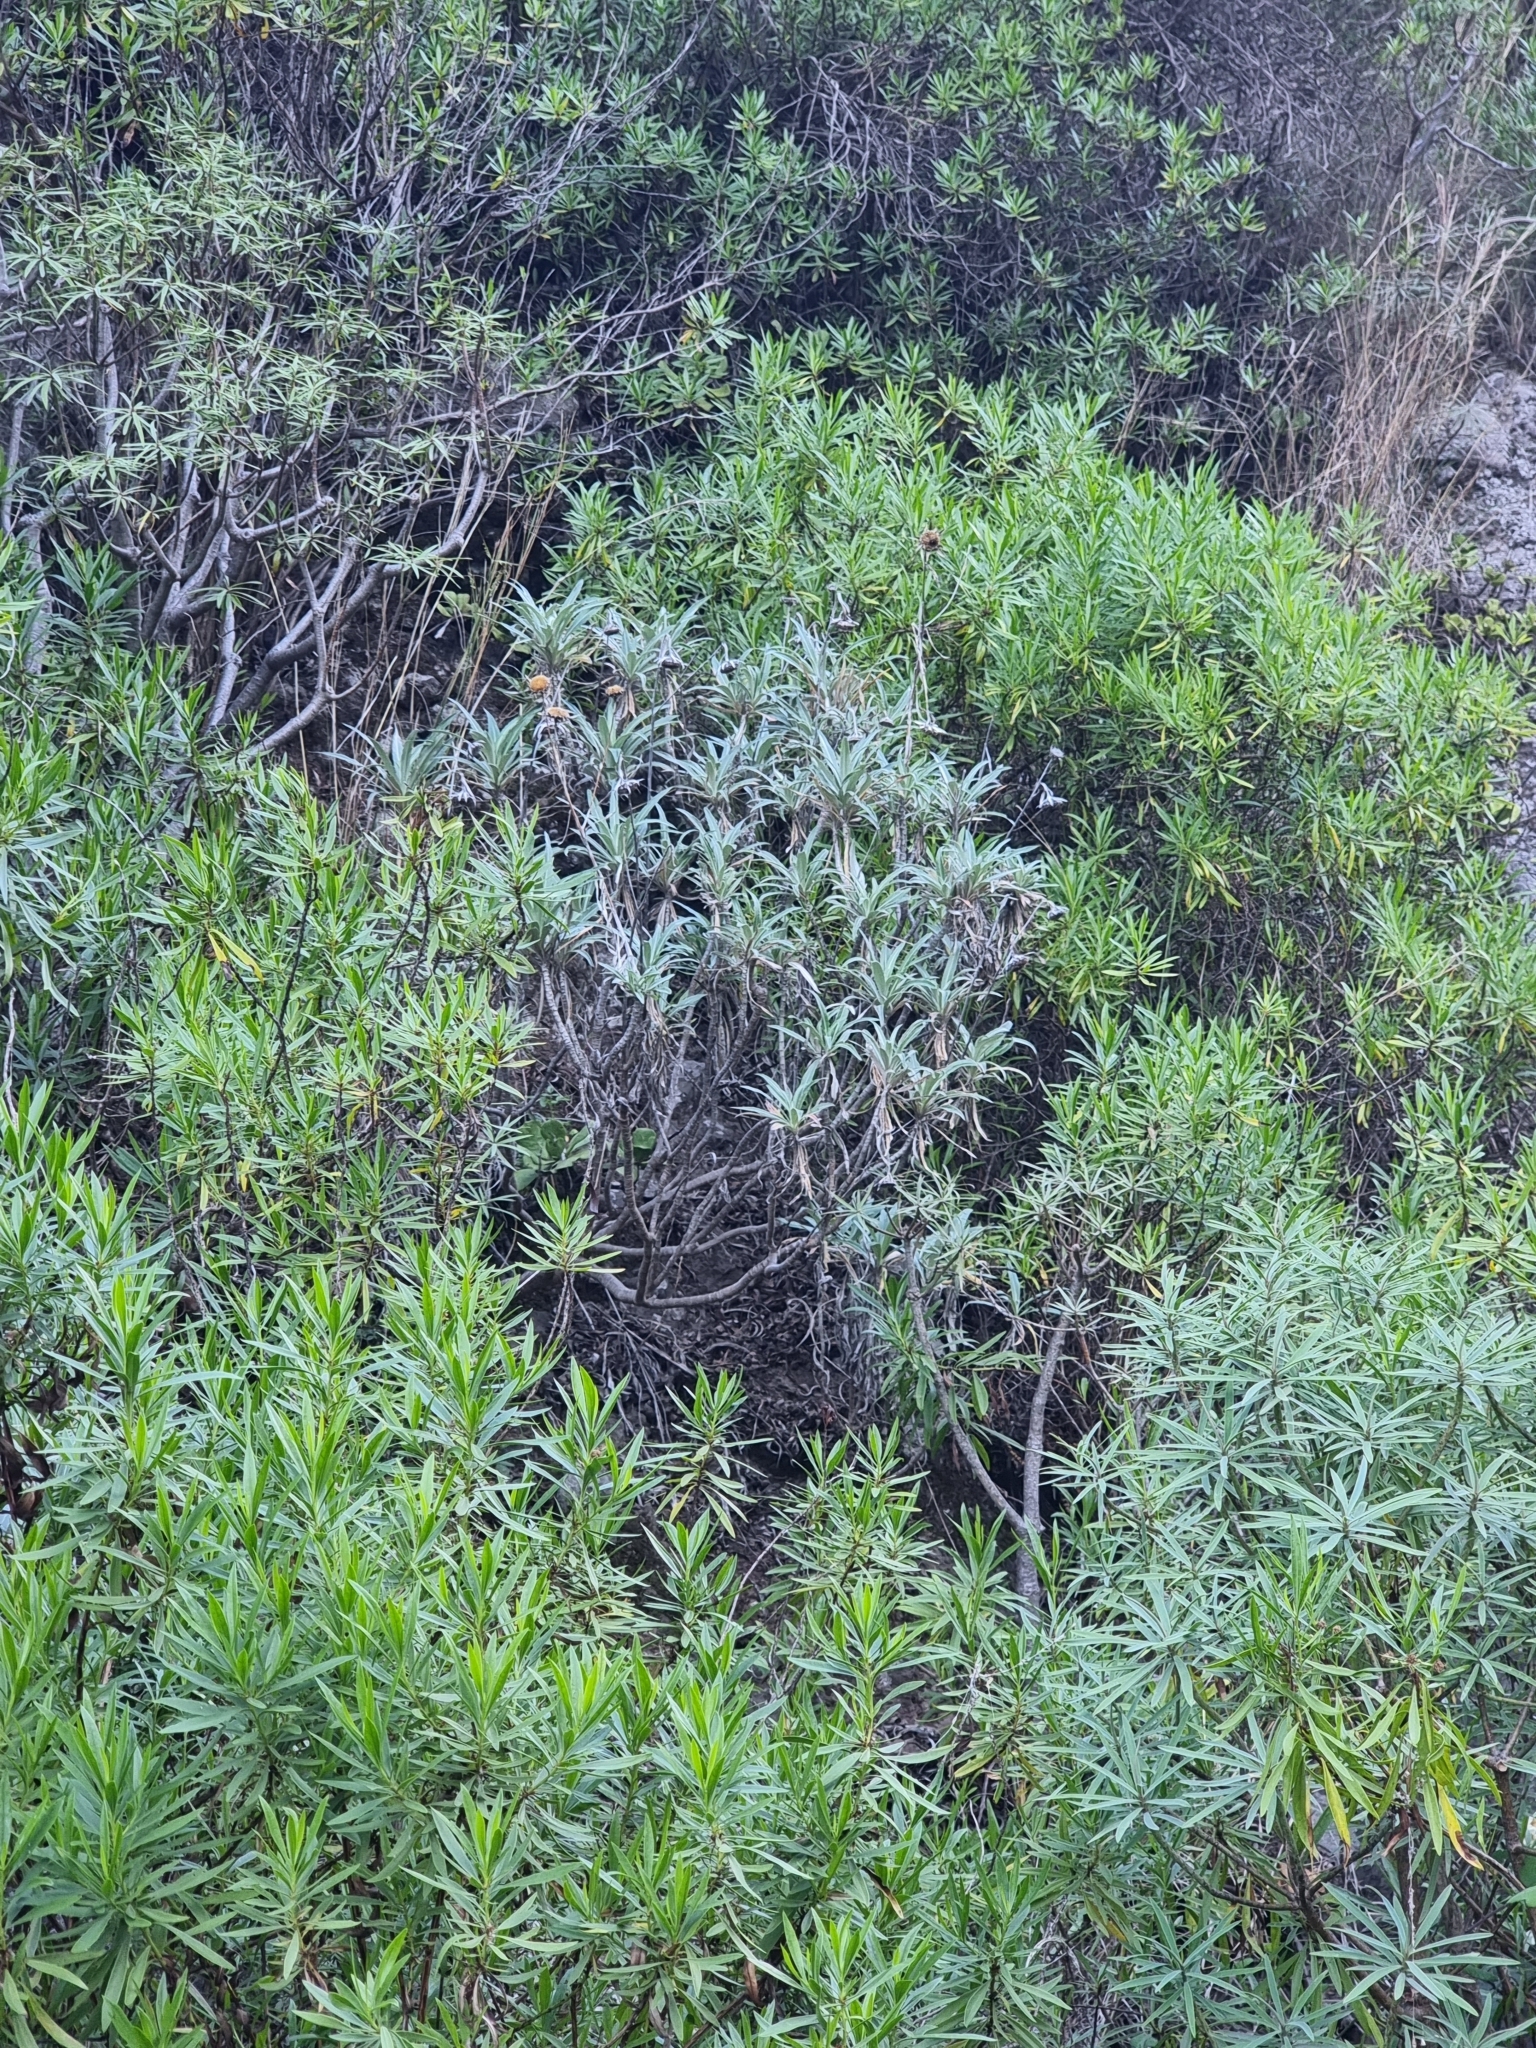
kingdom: Plantae
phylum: Tracheophyta
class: Magnoliopsida
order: Asterales
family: Asteraceae
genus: Carlina
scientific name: Carlina salicifolia
